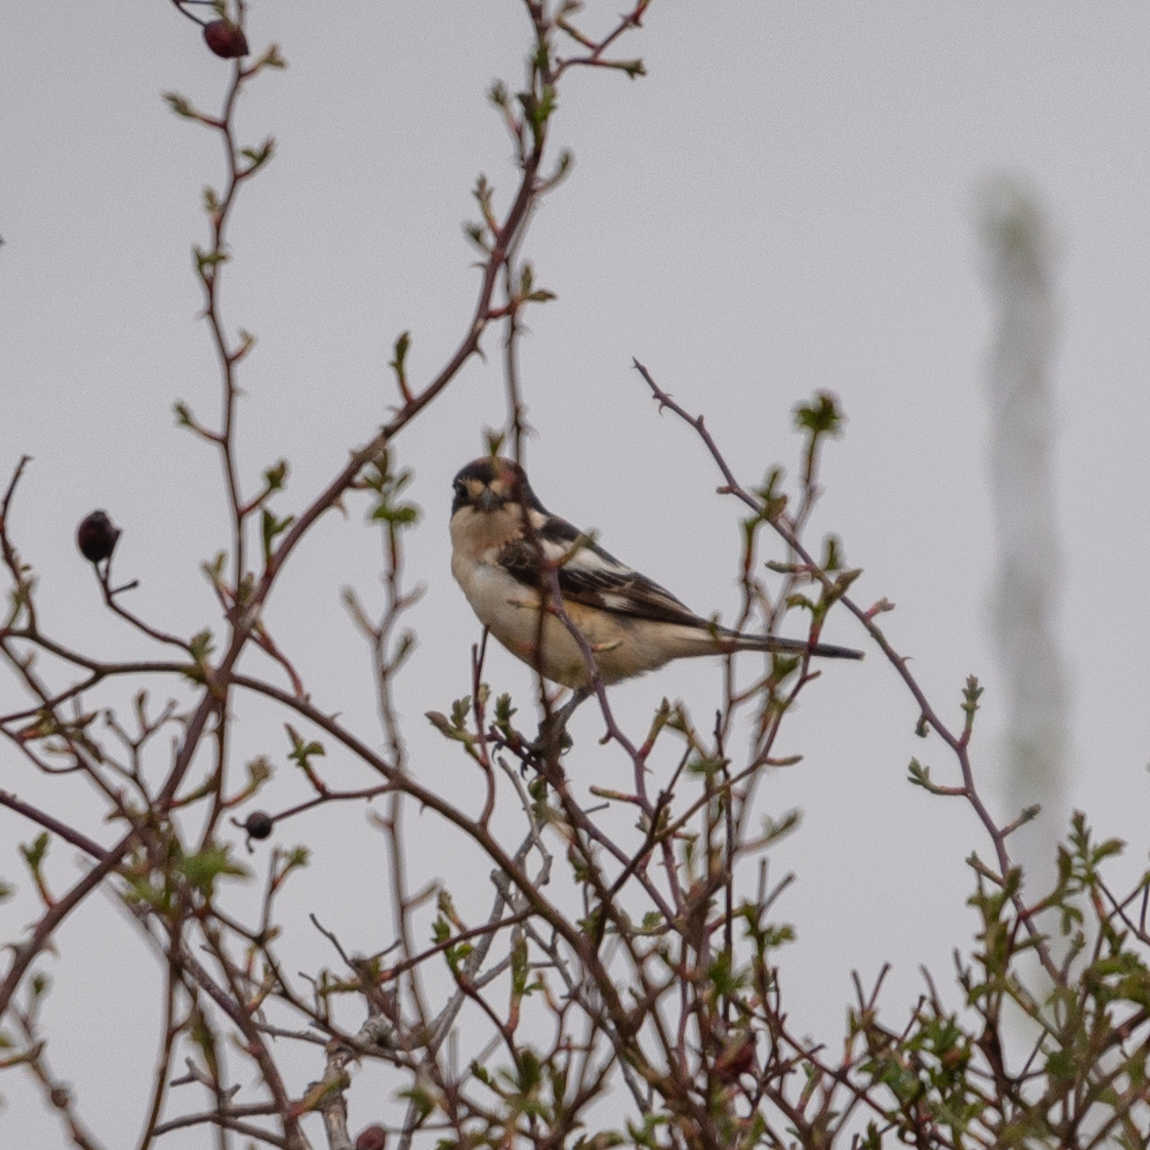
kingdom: Animalia
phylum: Chordata
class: Aves
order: Passeriformes
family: Laniidae
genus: Lanius
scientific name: Lanius senator
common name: Woodchat shrike
